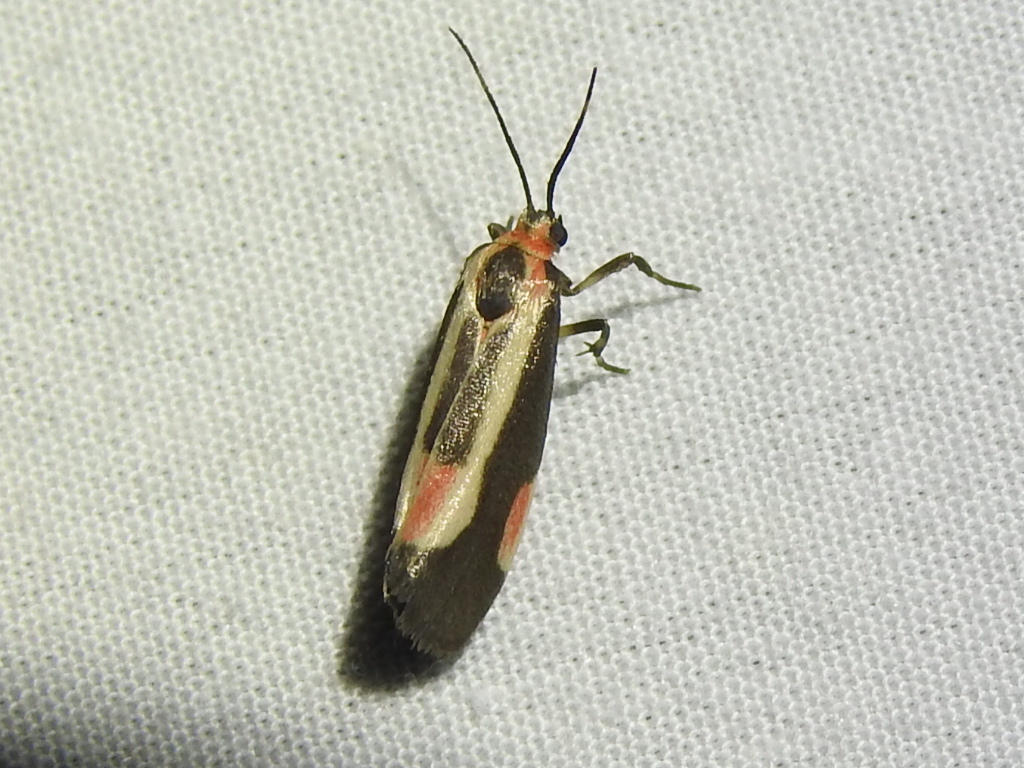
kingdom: Animalia
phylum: Arthropoda
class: Insecta
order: Lepidoptera
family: Erebidae
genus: Cisthene
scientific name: Cisthene packardii
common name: Packard's lichen moth
